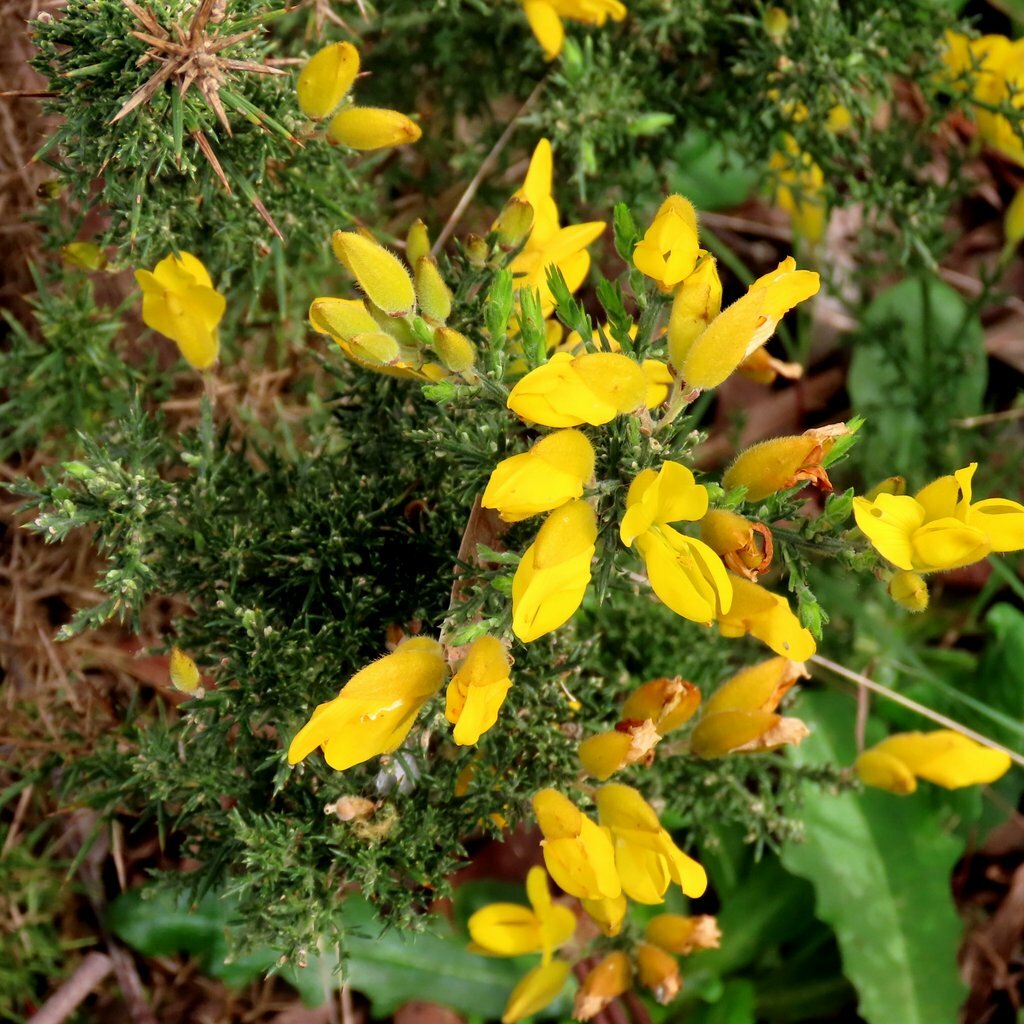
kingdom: Plantae
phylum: Tracheophyta
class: Magnoliopsida
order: Fabales
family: Fabaceae
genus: Ulex
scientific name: Ulex europaeus
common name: Common gorse
